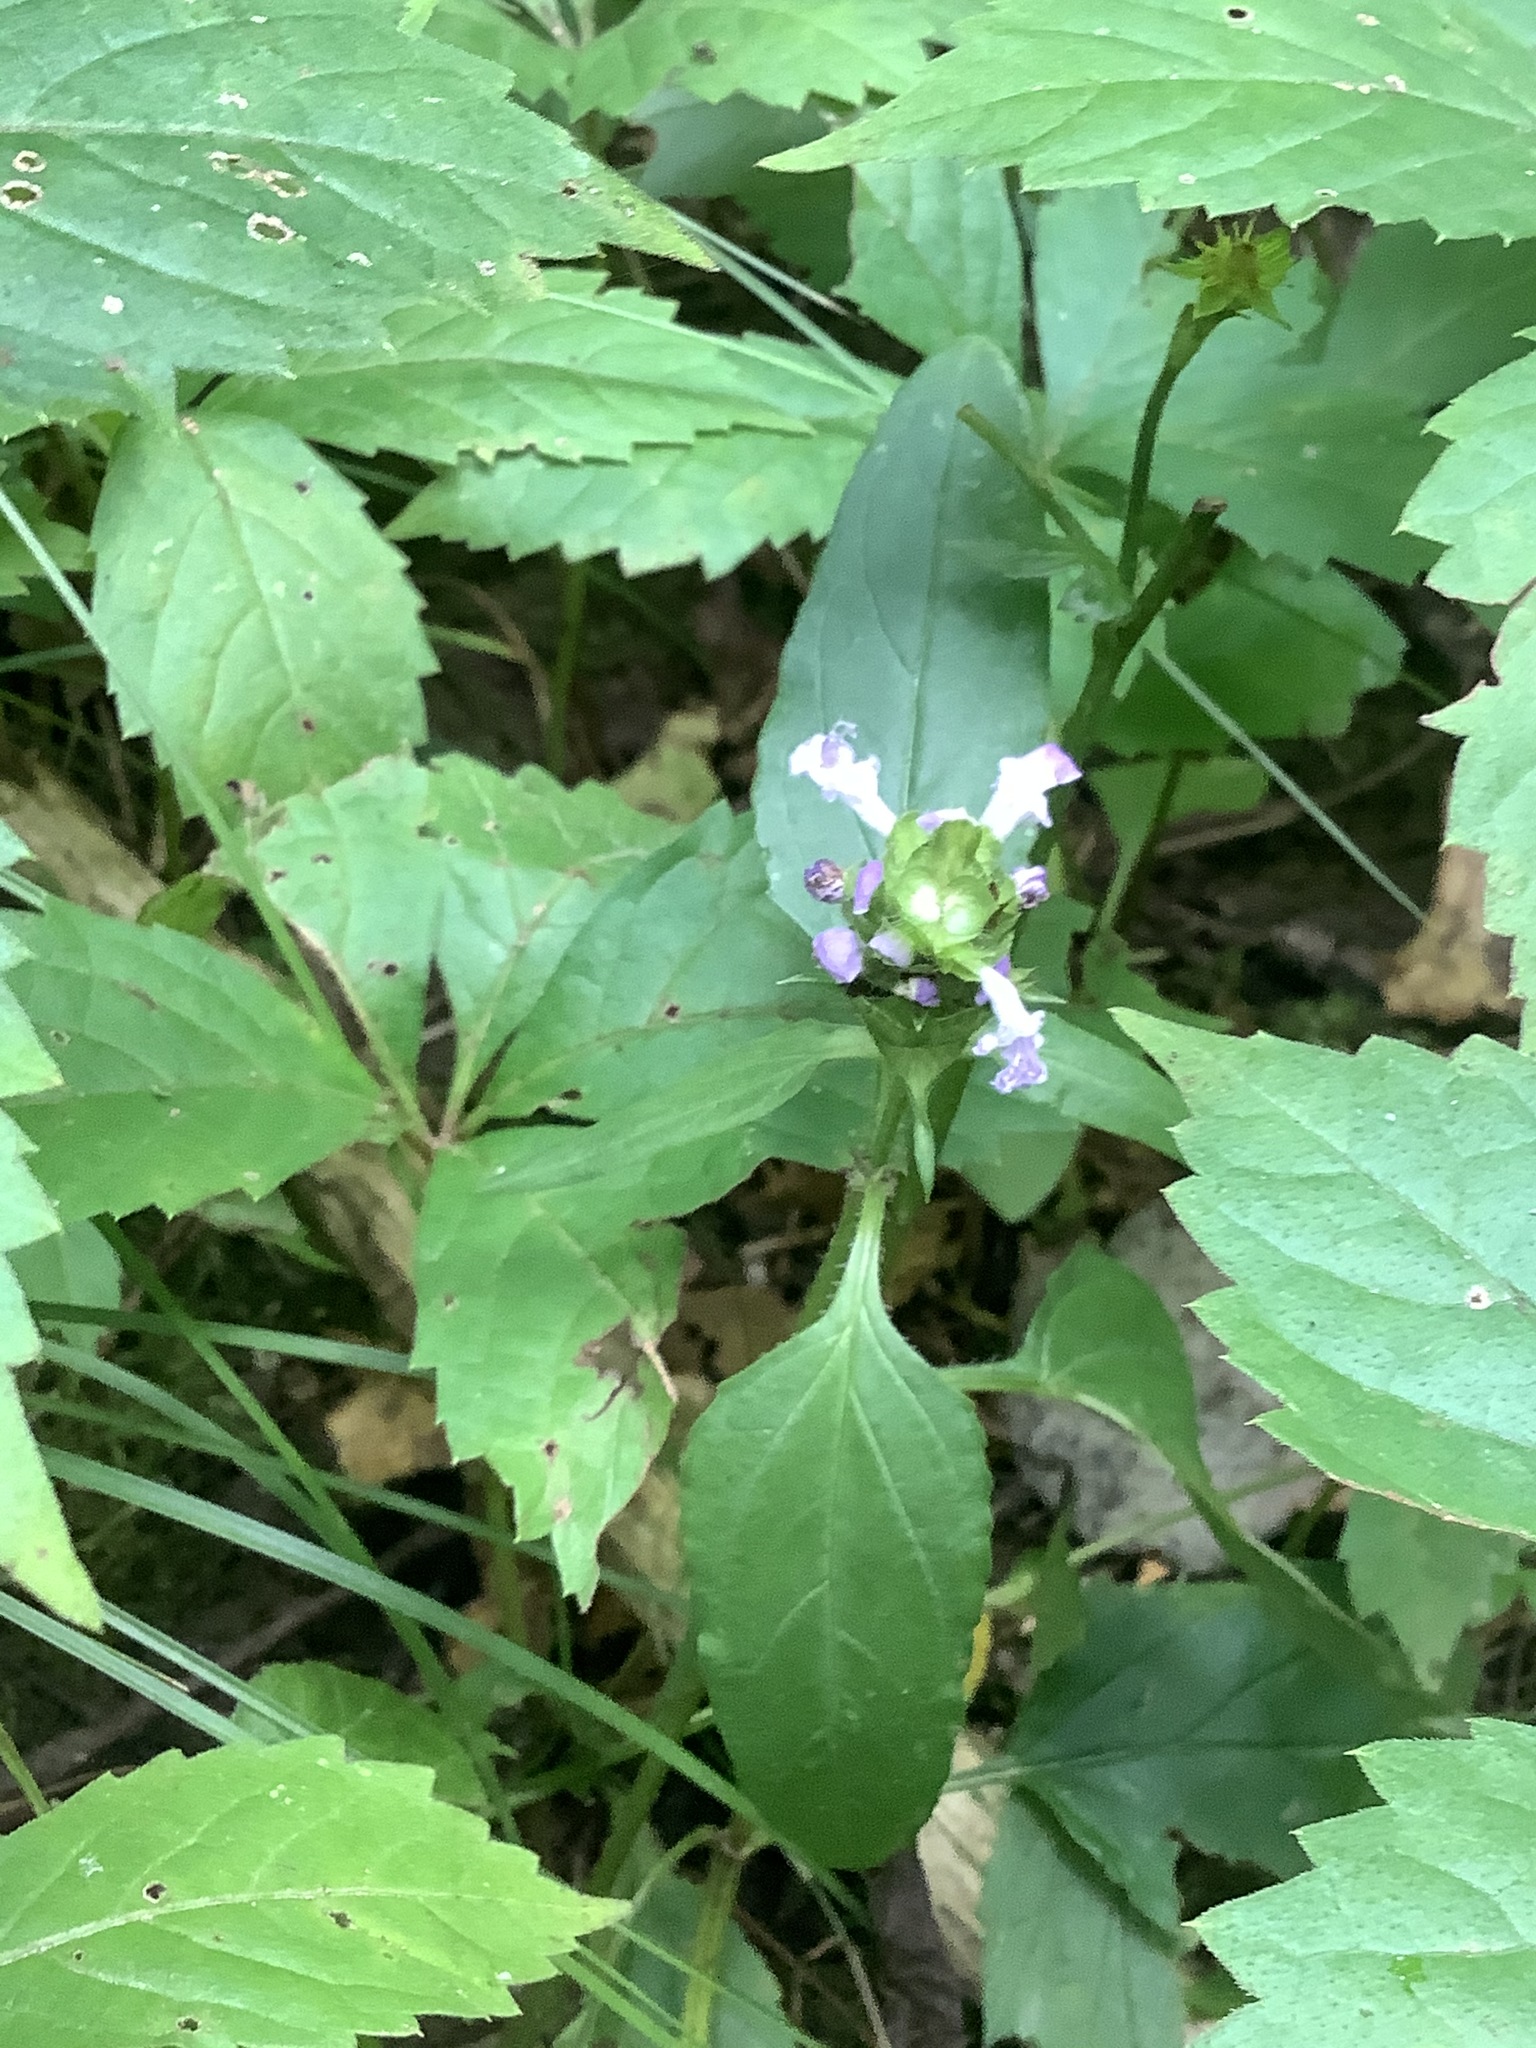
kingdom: Plantae
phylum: Tracheophyta
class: Magnoliopsida
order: Lamiales
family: Lamiaceae
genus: Prunella
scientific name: Prunella vulgaris
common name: Heal-all
